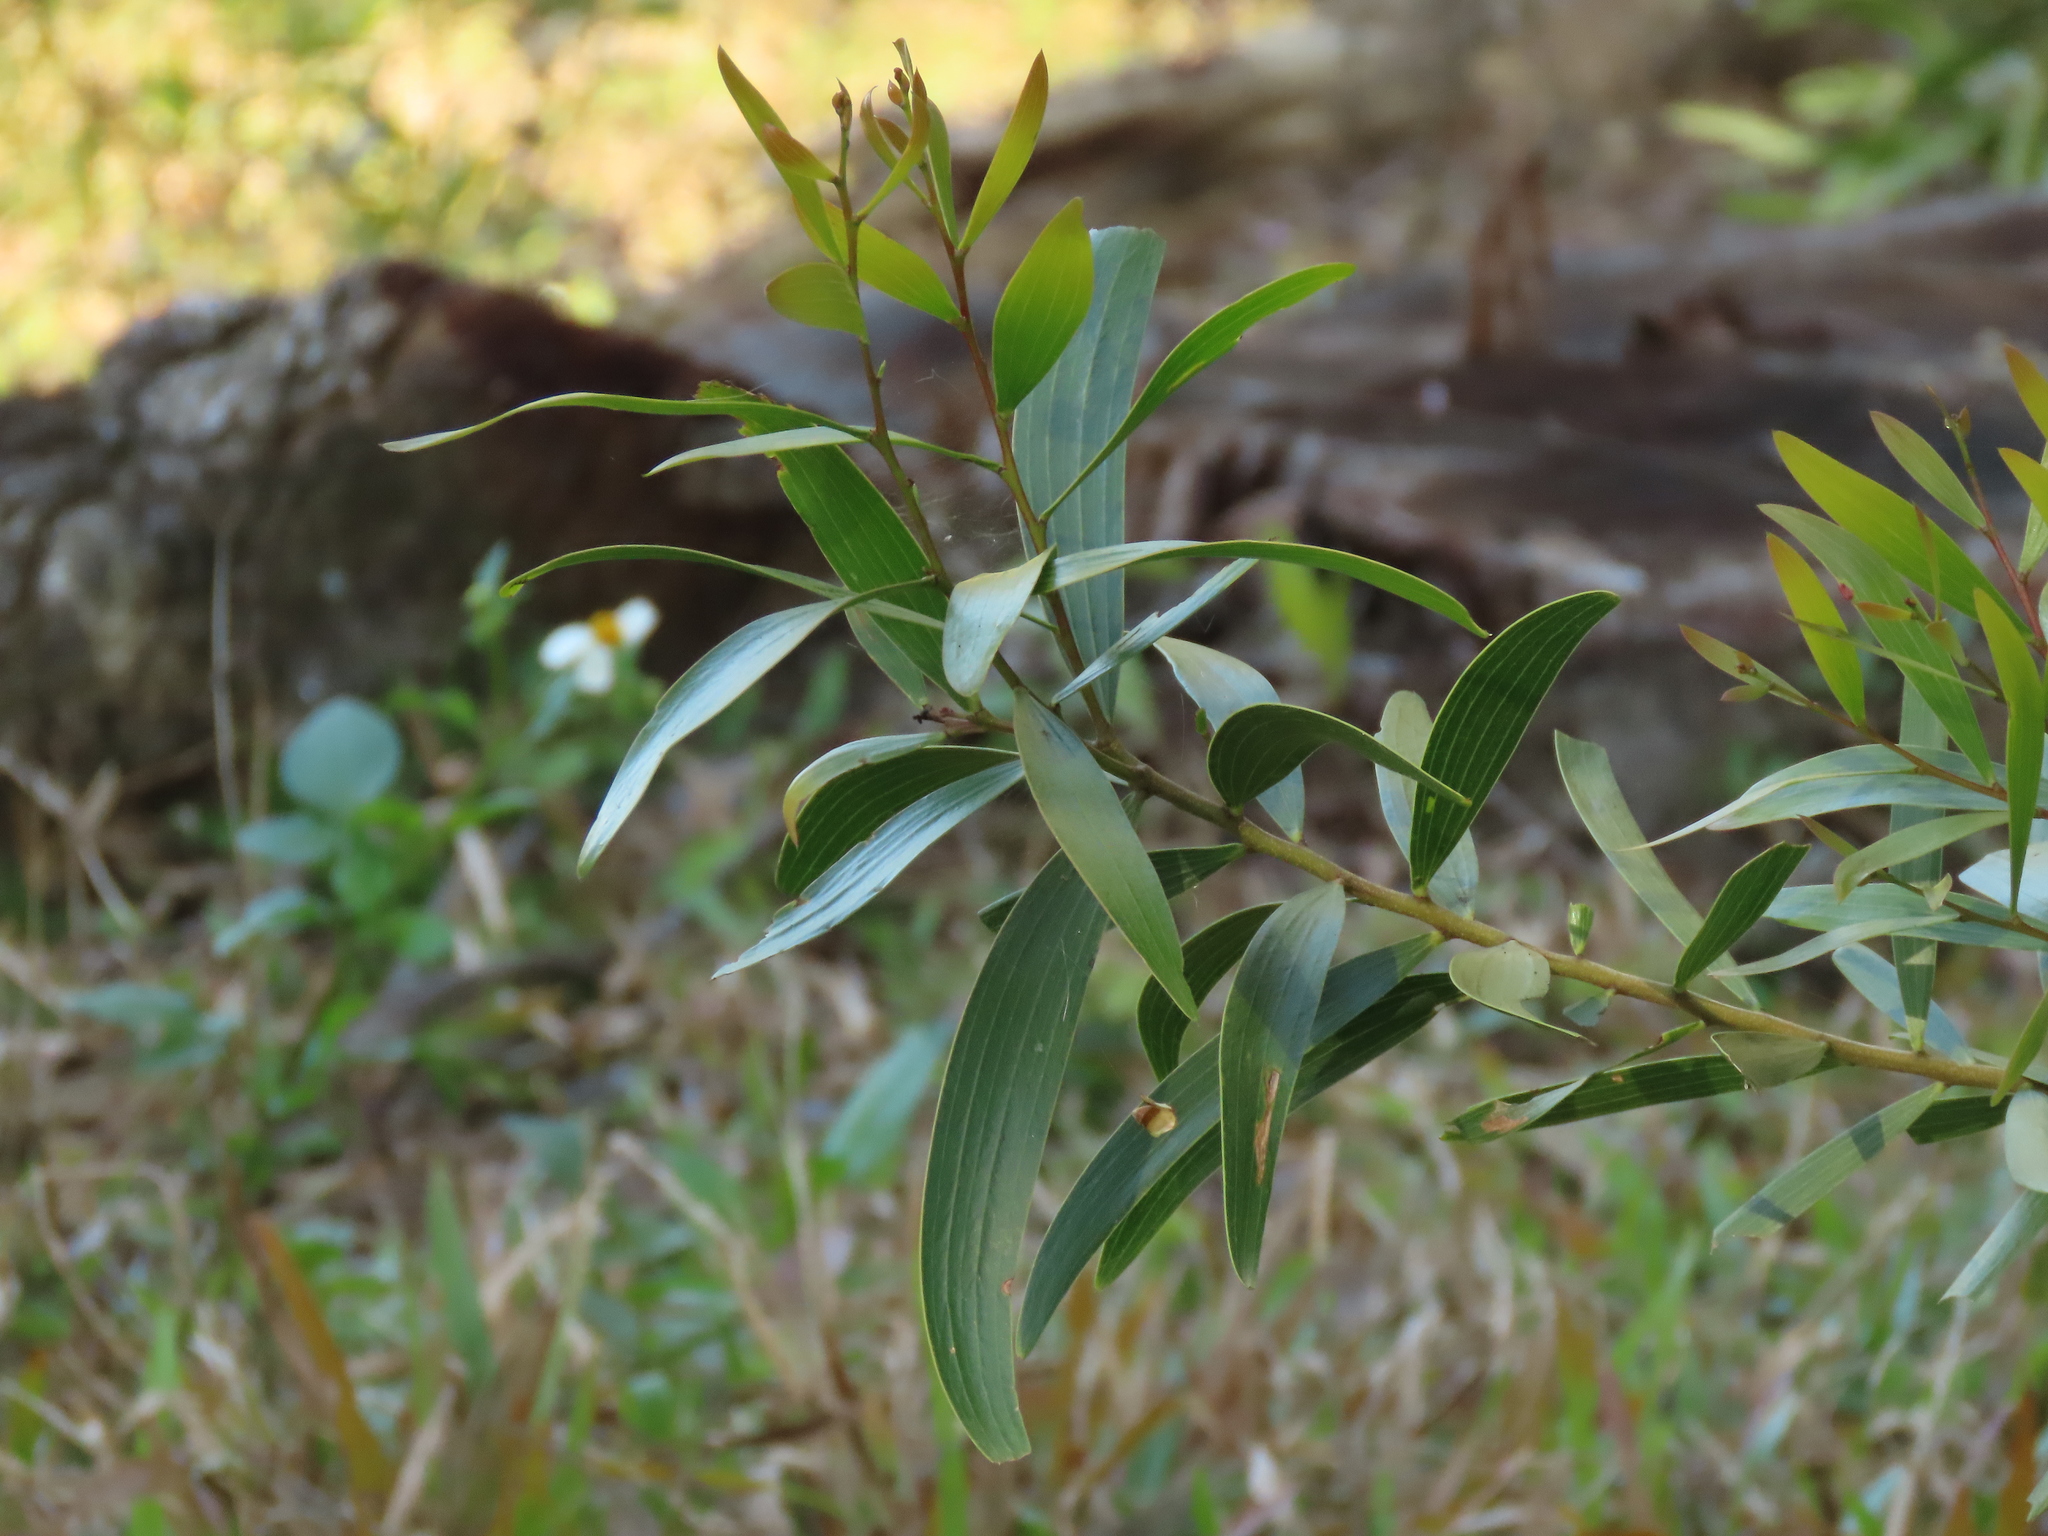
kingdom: Plantae
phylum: Tracheophyta
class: Magnoliopsida
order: Fabales
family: Fabaceae
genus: Acacia
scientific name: Acacia confusa
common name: Formosan koa
